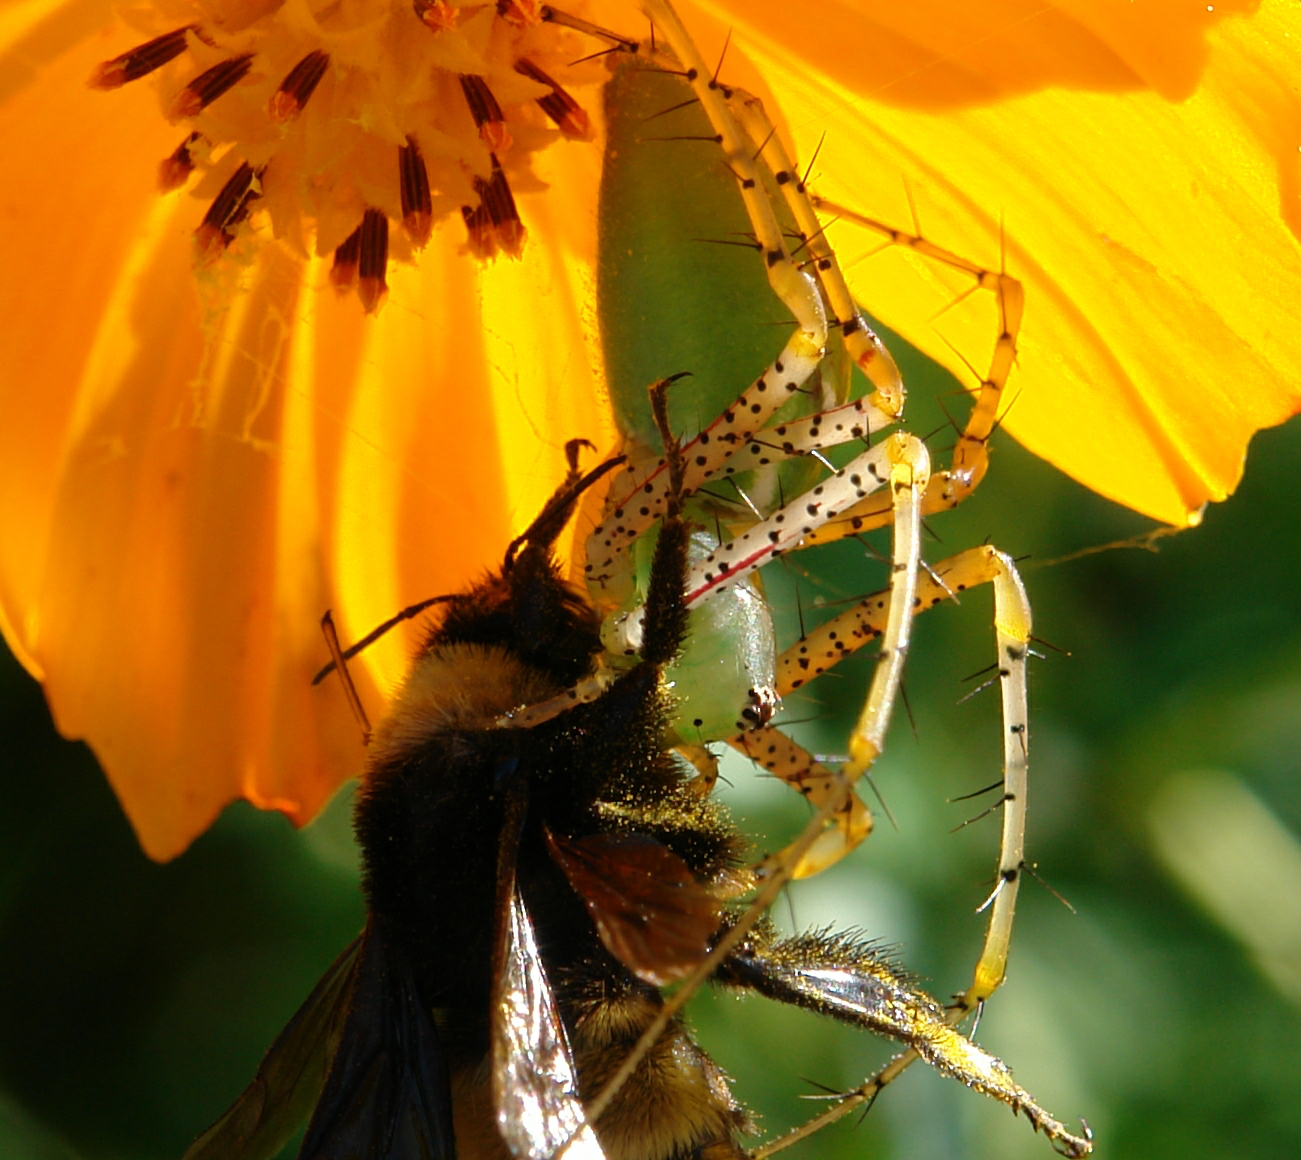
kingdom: Animalia
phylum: Arthropoda
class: Arachnida
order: Araneae
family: Oxyopidae
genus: Peucetia
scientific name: Peucetia viridans
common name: Lynx spiders
